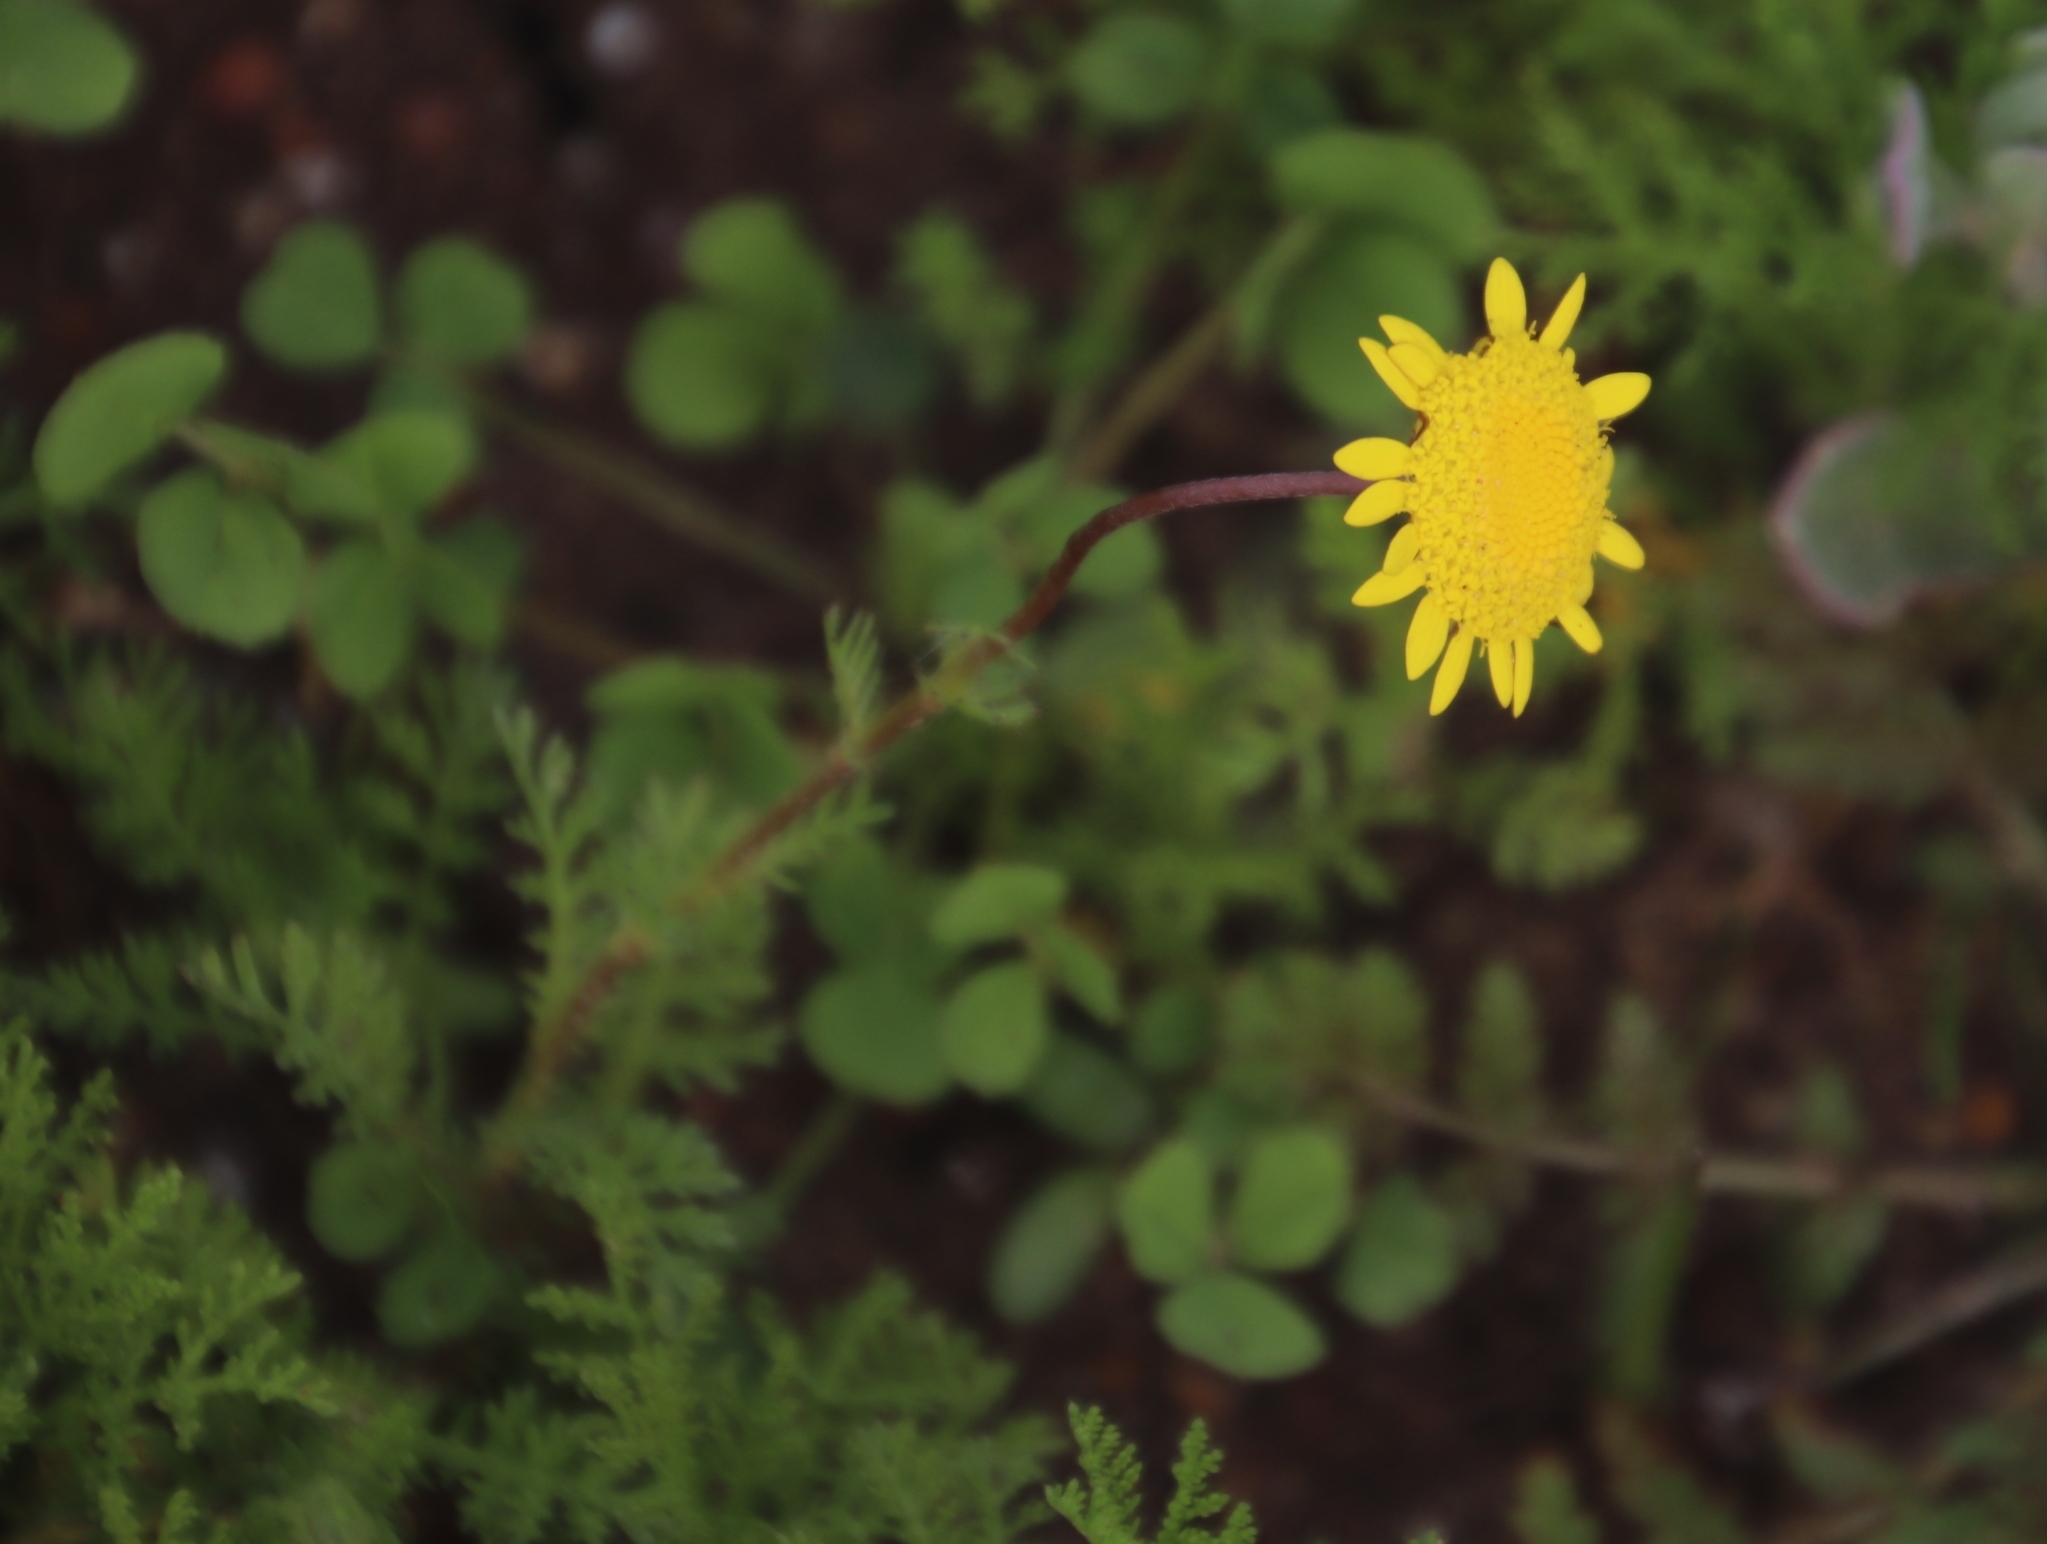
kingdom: Plantae
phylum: Tracheophyta
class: Magnoliopsida
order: Asterales
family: Asteraceae
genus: Cotula
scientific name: Cotula pruinosa
